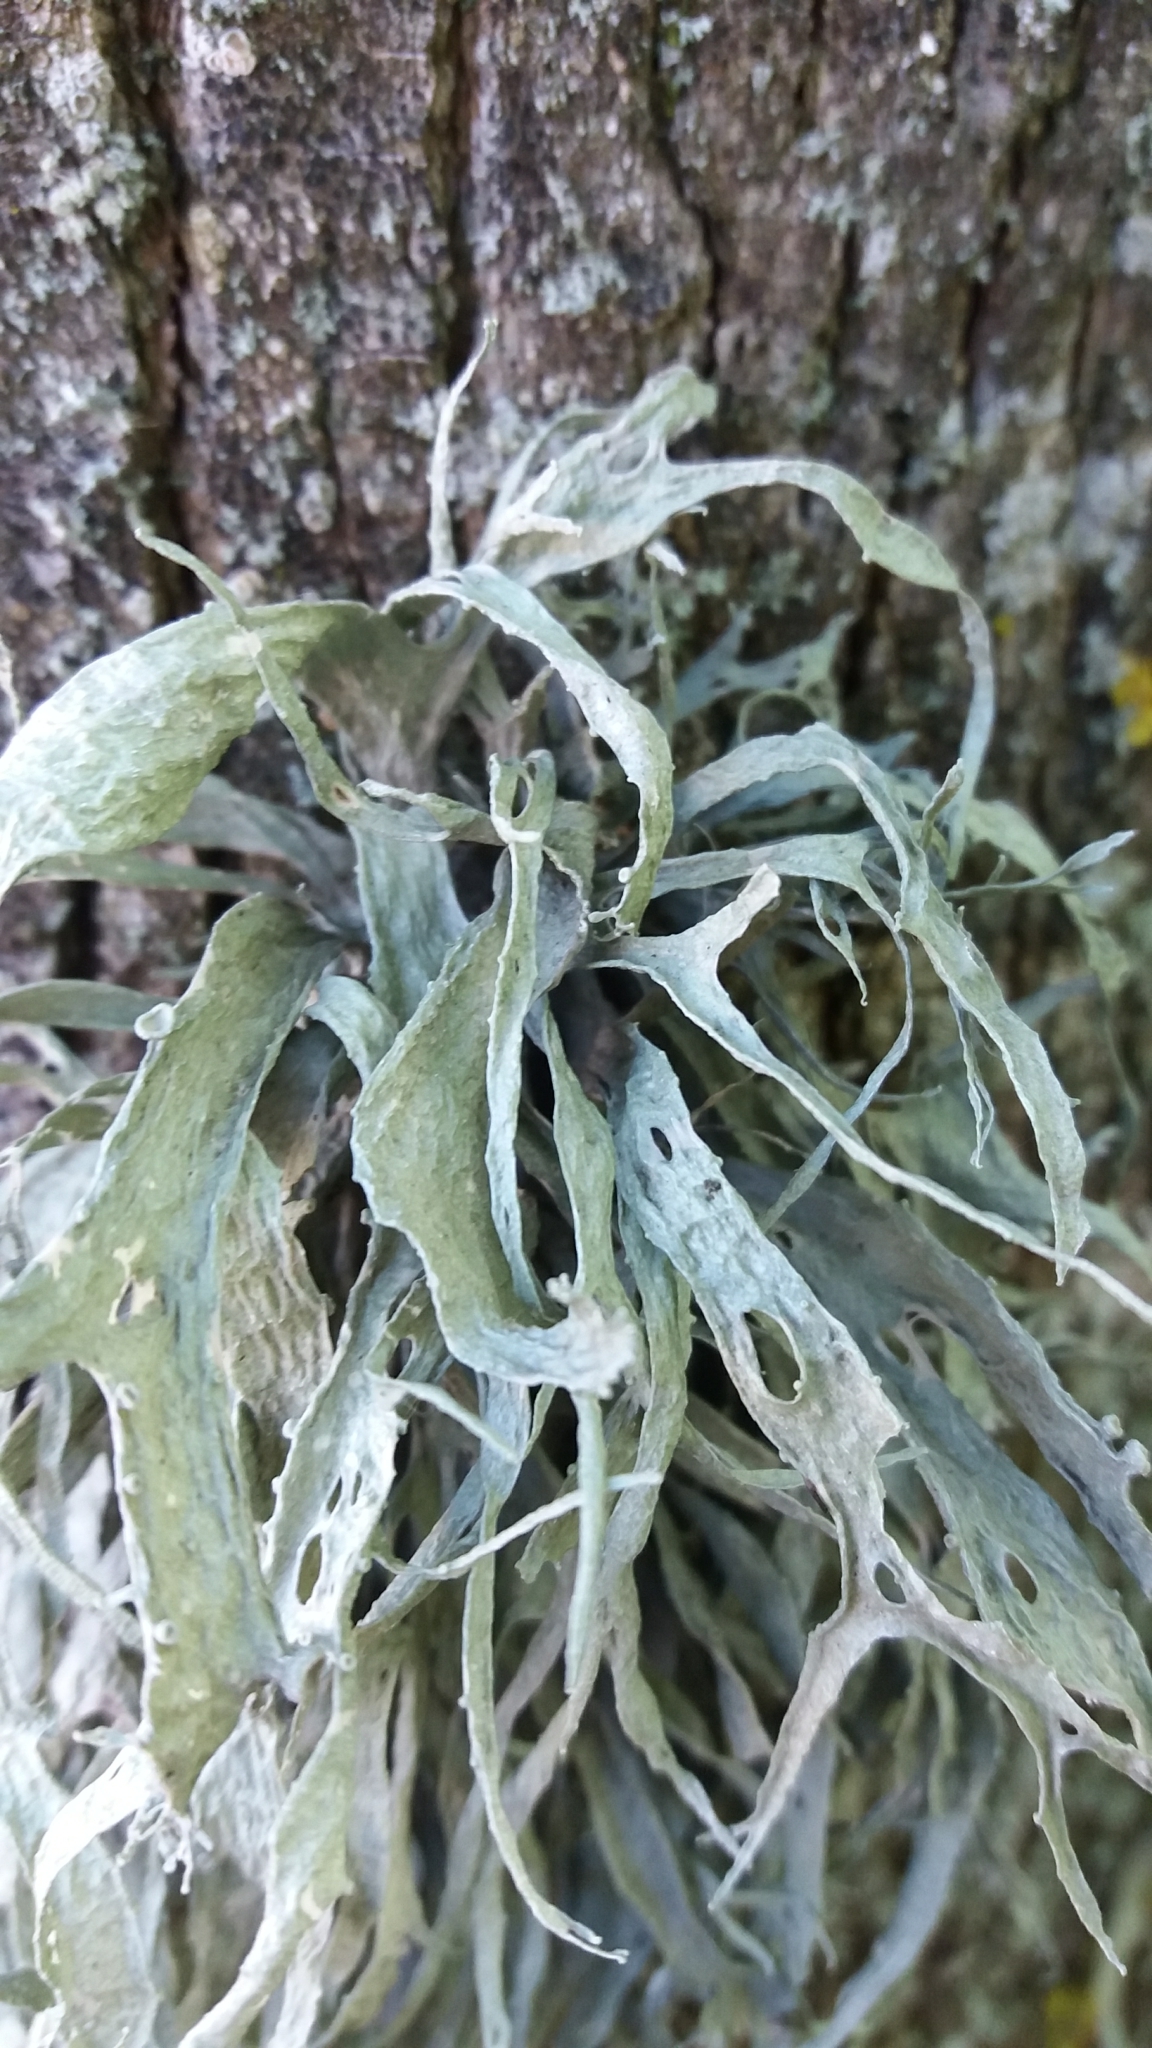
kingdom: Fungi
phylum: Ascomycota
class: Lecanoromycetes
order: Lecanorales
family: Ramalinaceae
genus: Ramalina
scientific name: Ramalina fraxinea
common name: Cartilage lichen
